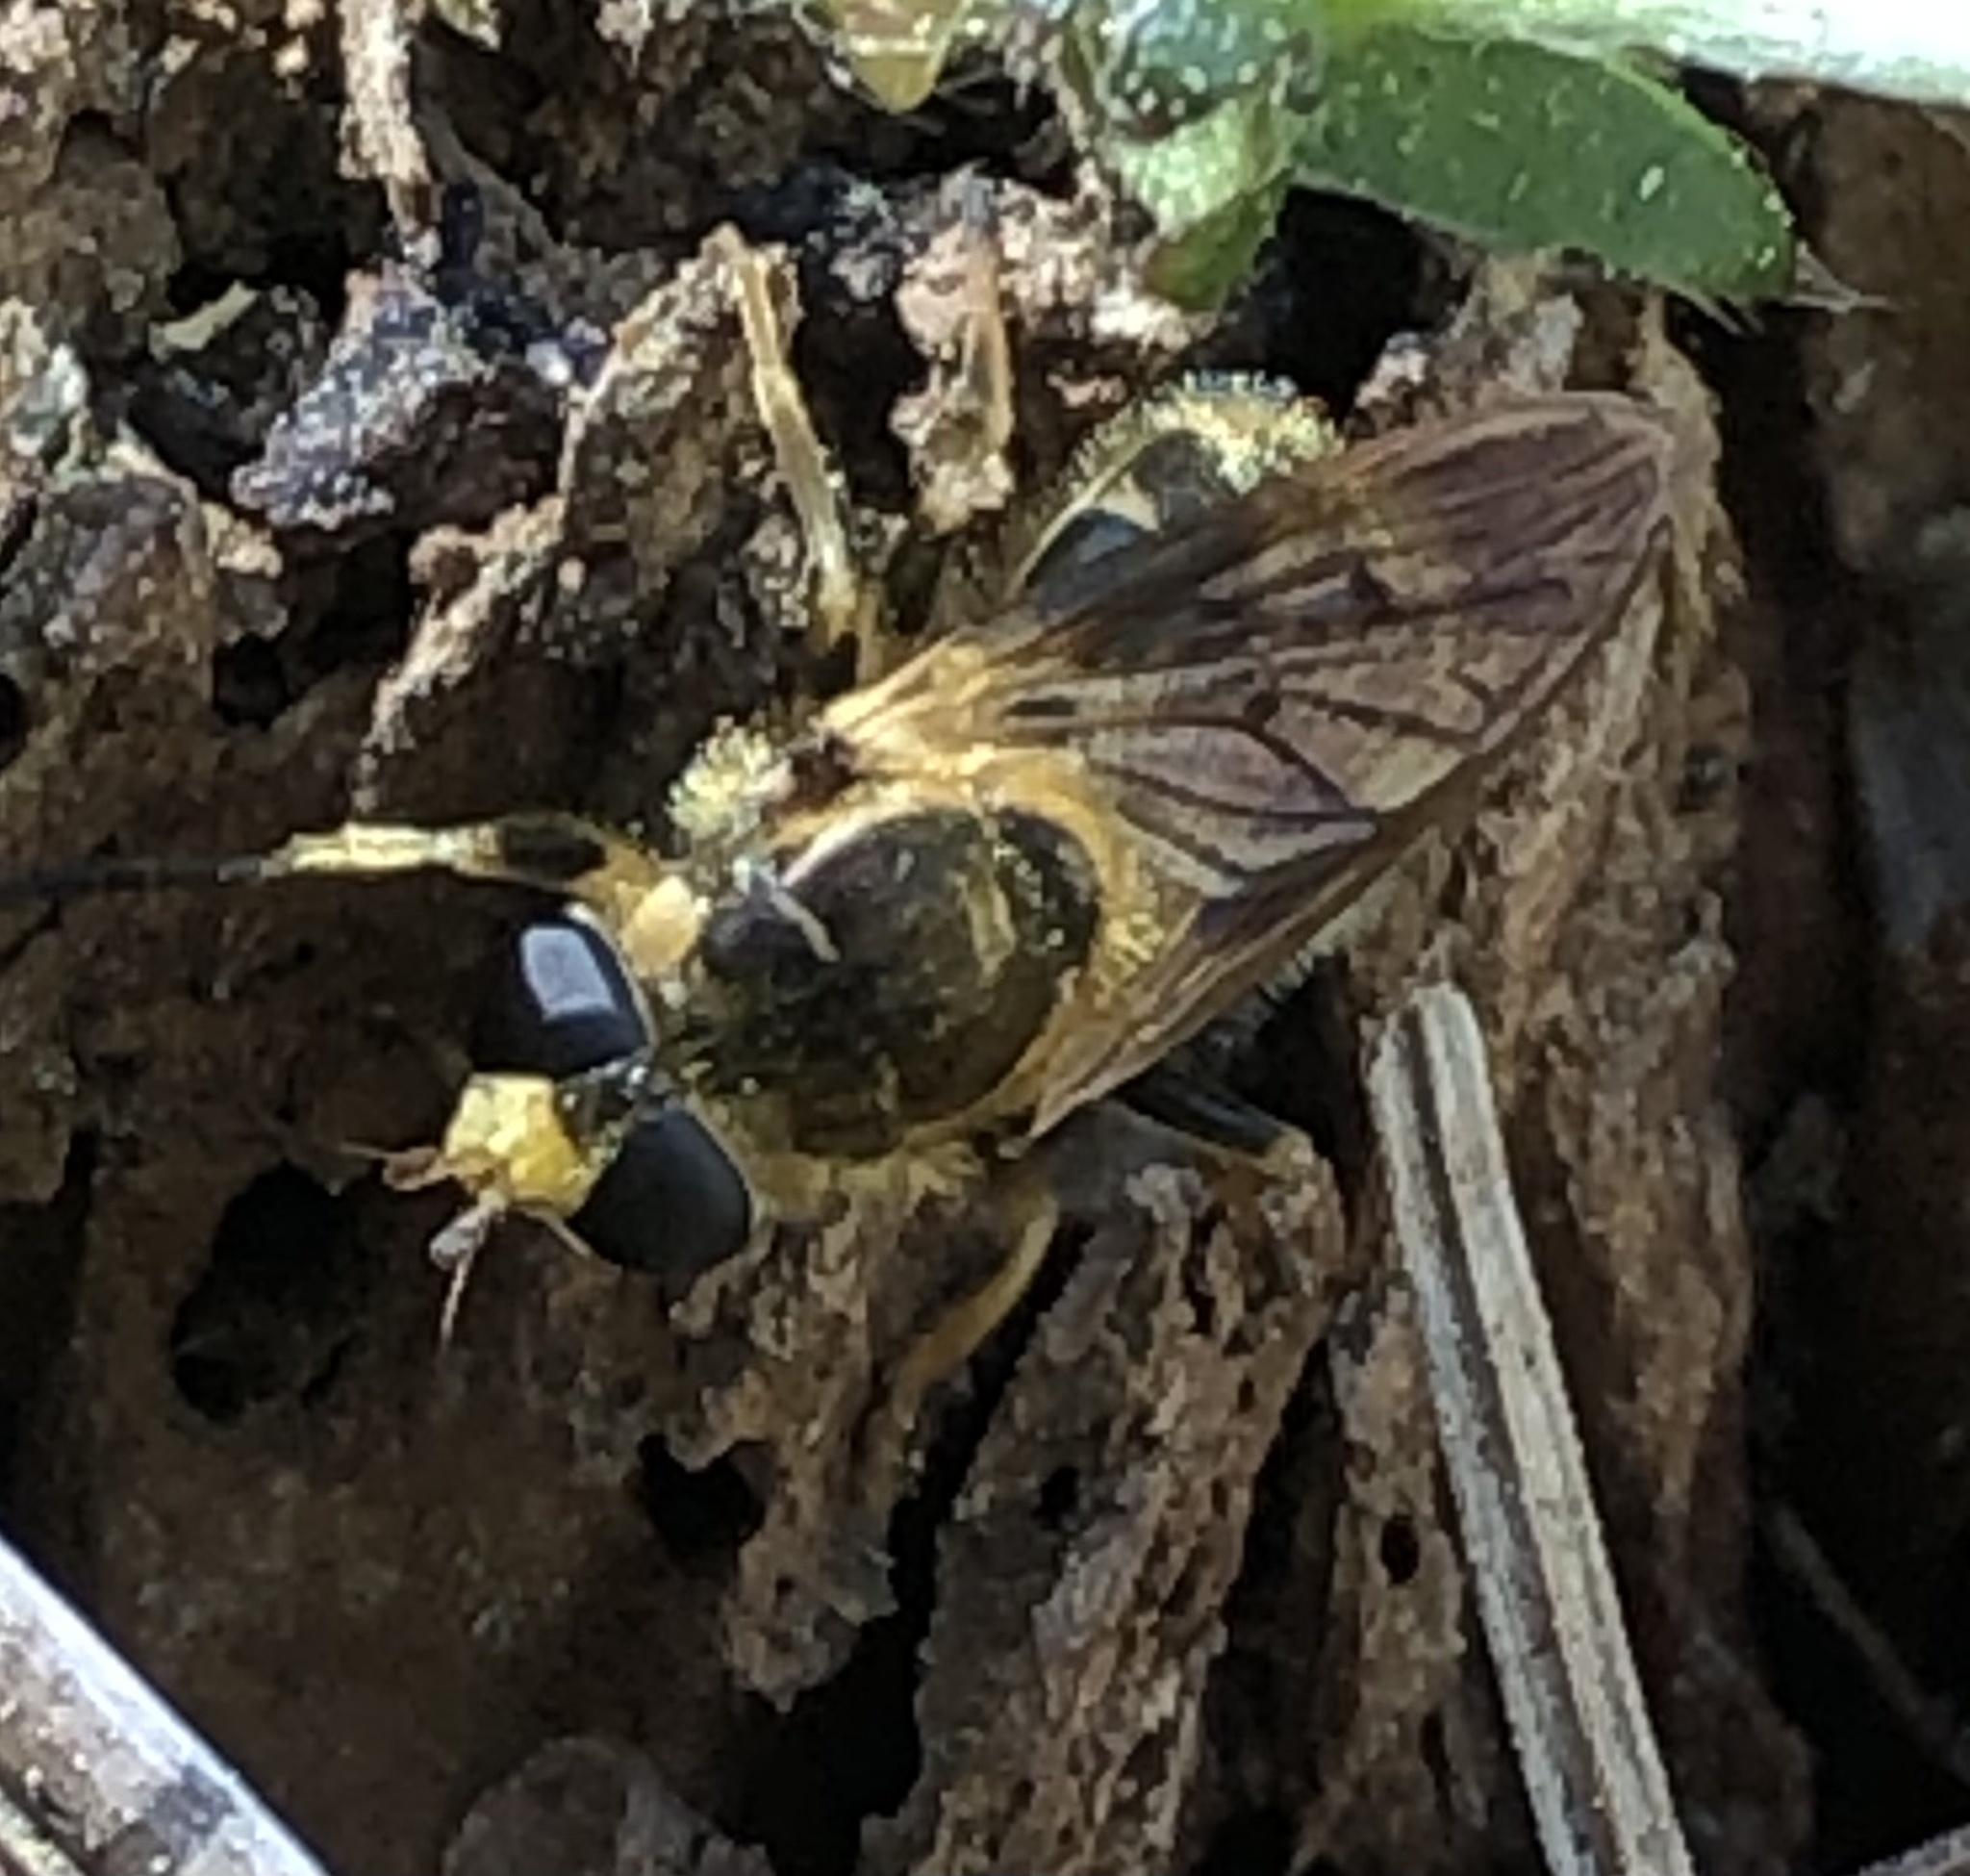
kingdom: Animalia
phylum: Arthropoda
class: Insecta
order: Diptera
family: Syrphidae
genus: Blera
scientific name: Blera pictipes
